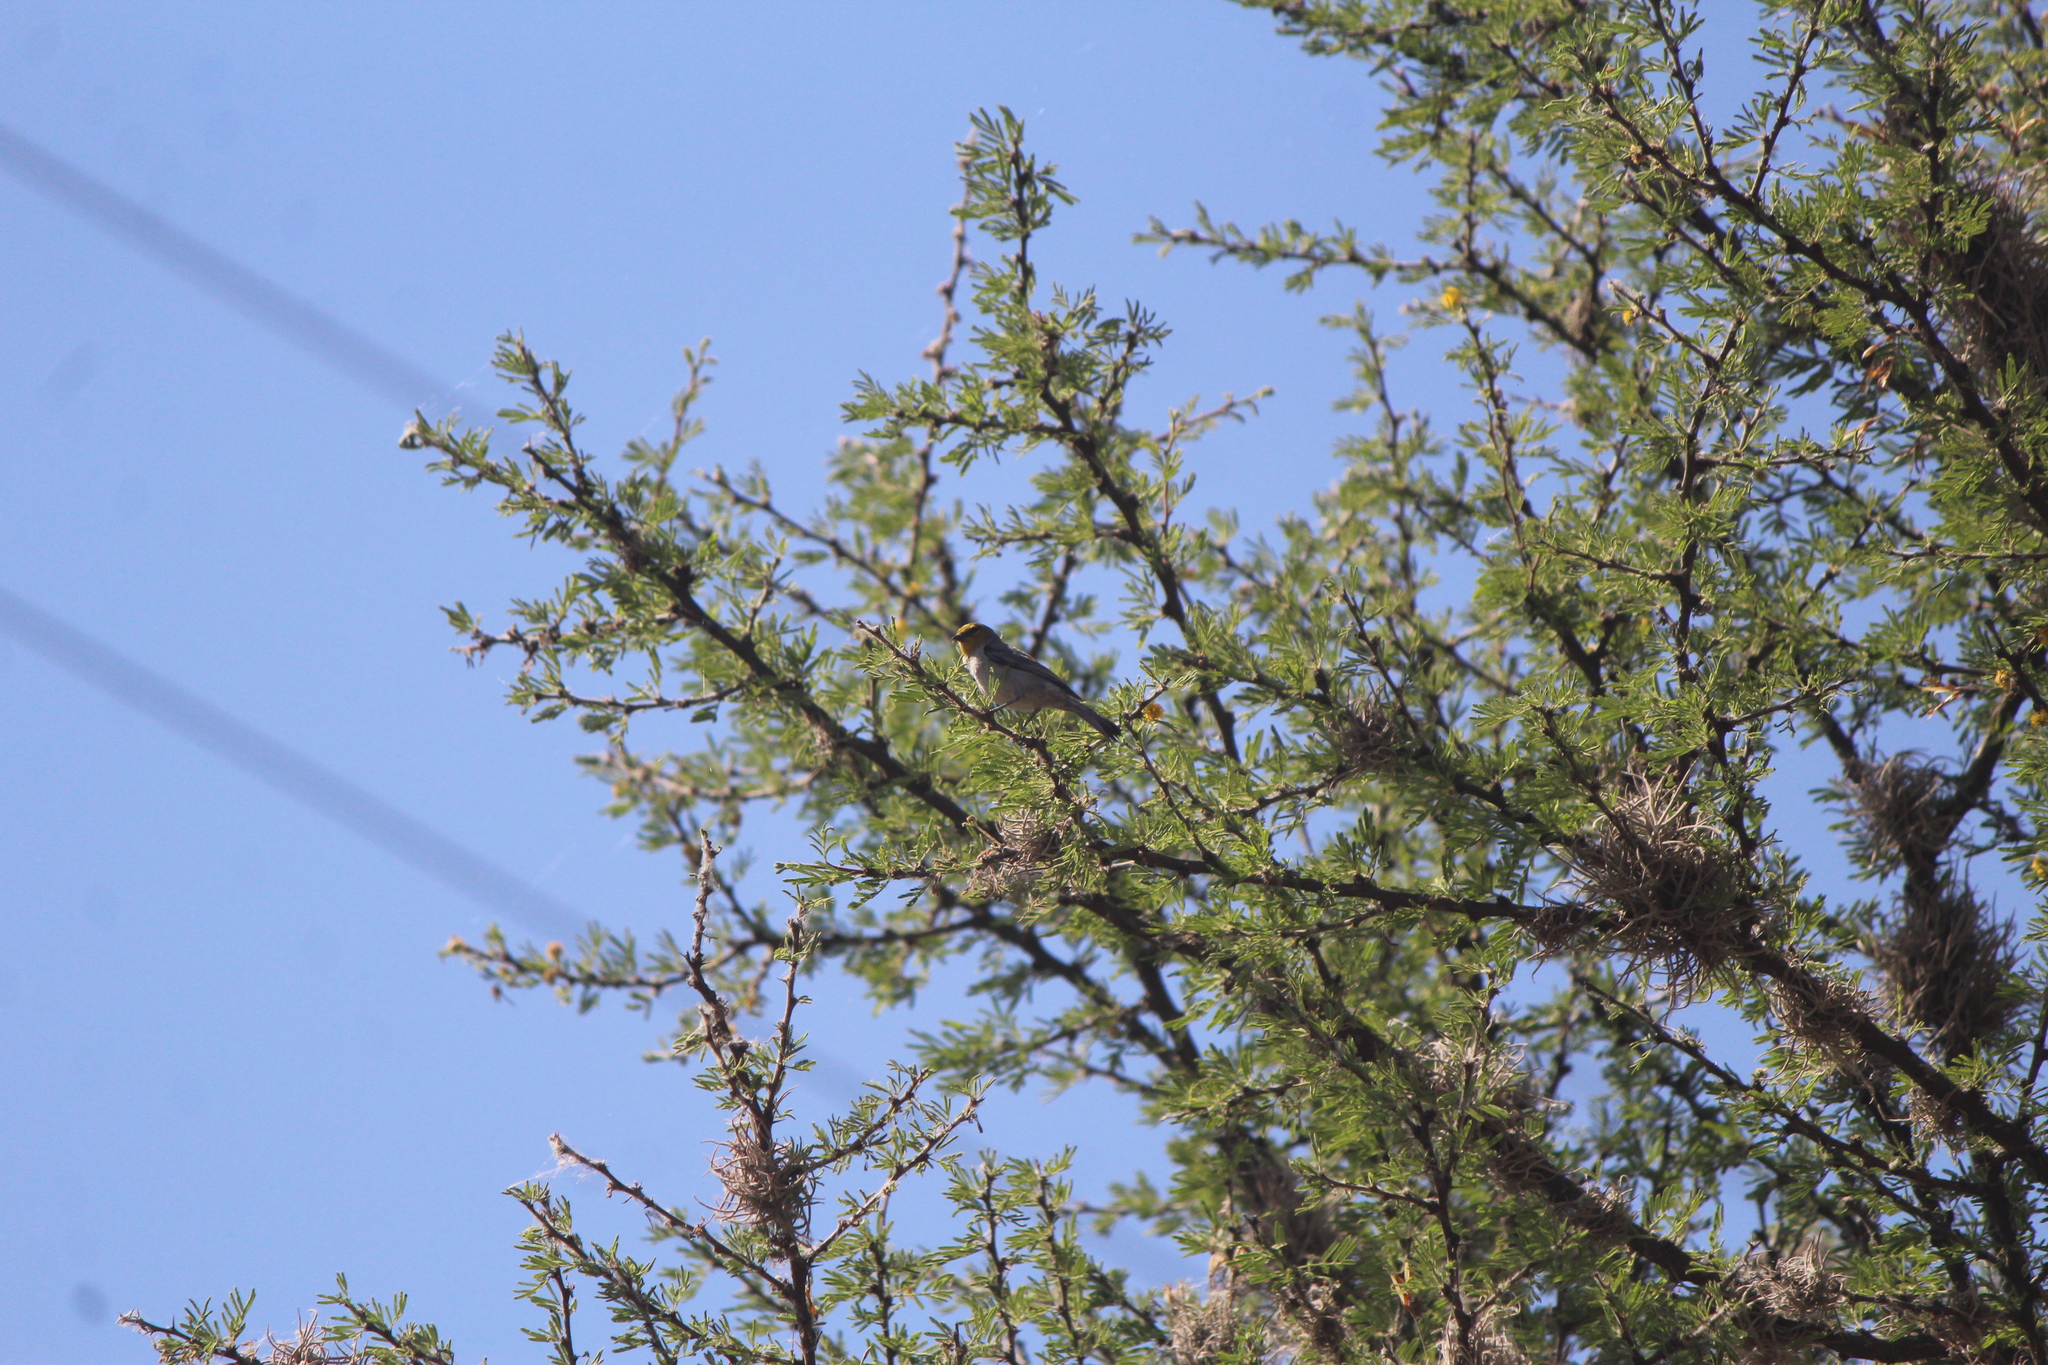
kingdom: Animalia
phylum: Chordata
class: Aves
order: Passeriformes
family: Remizidae
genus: Auriparus
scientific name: Auriparus flaviceps
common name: Verdin
